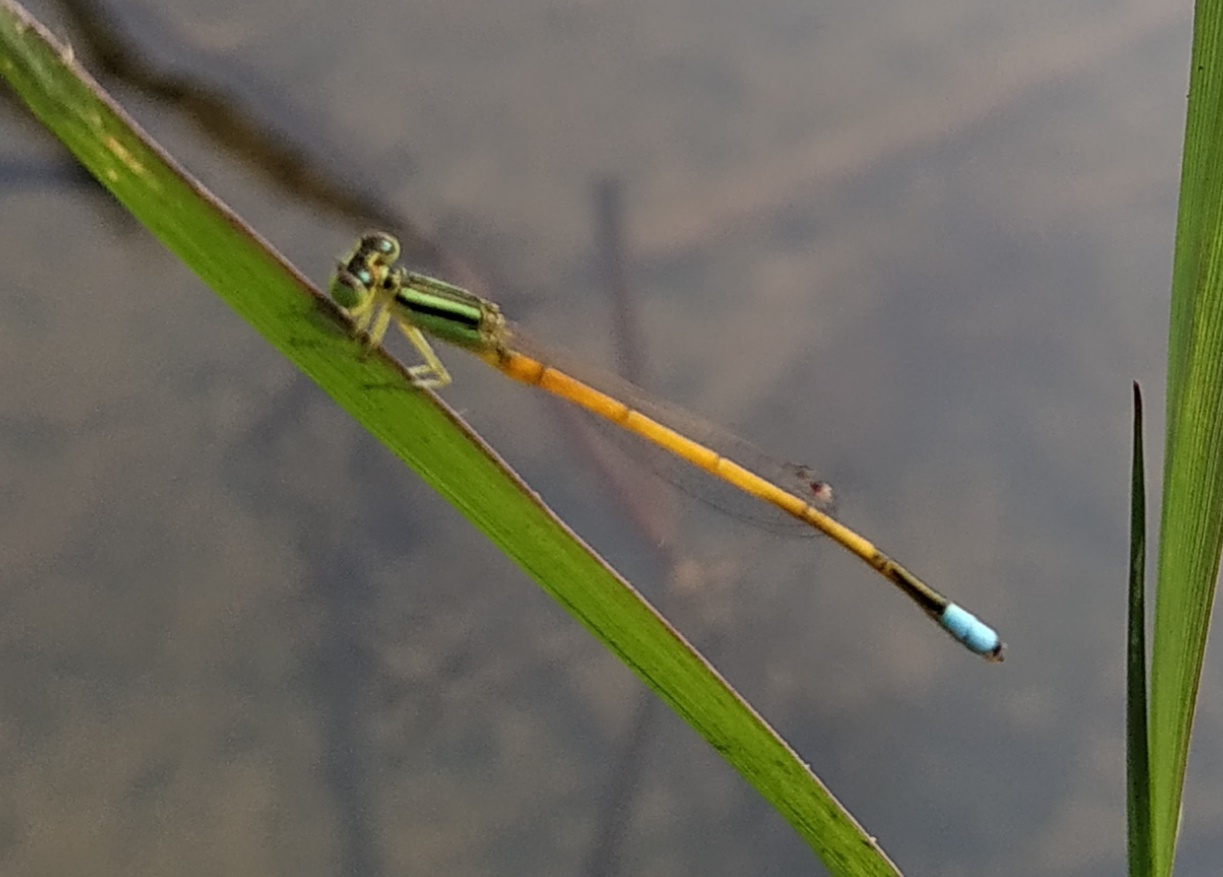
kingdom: Animalia
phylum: Arthropoda
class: Insecta
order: Odonata
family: Coenagrionidae
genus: Ischnura
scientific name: Ischnura rubilio
